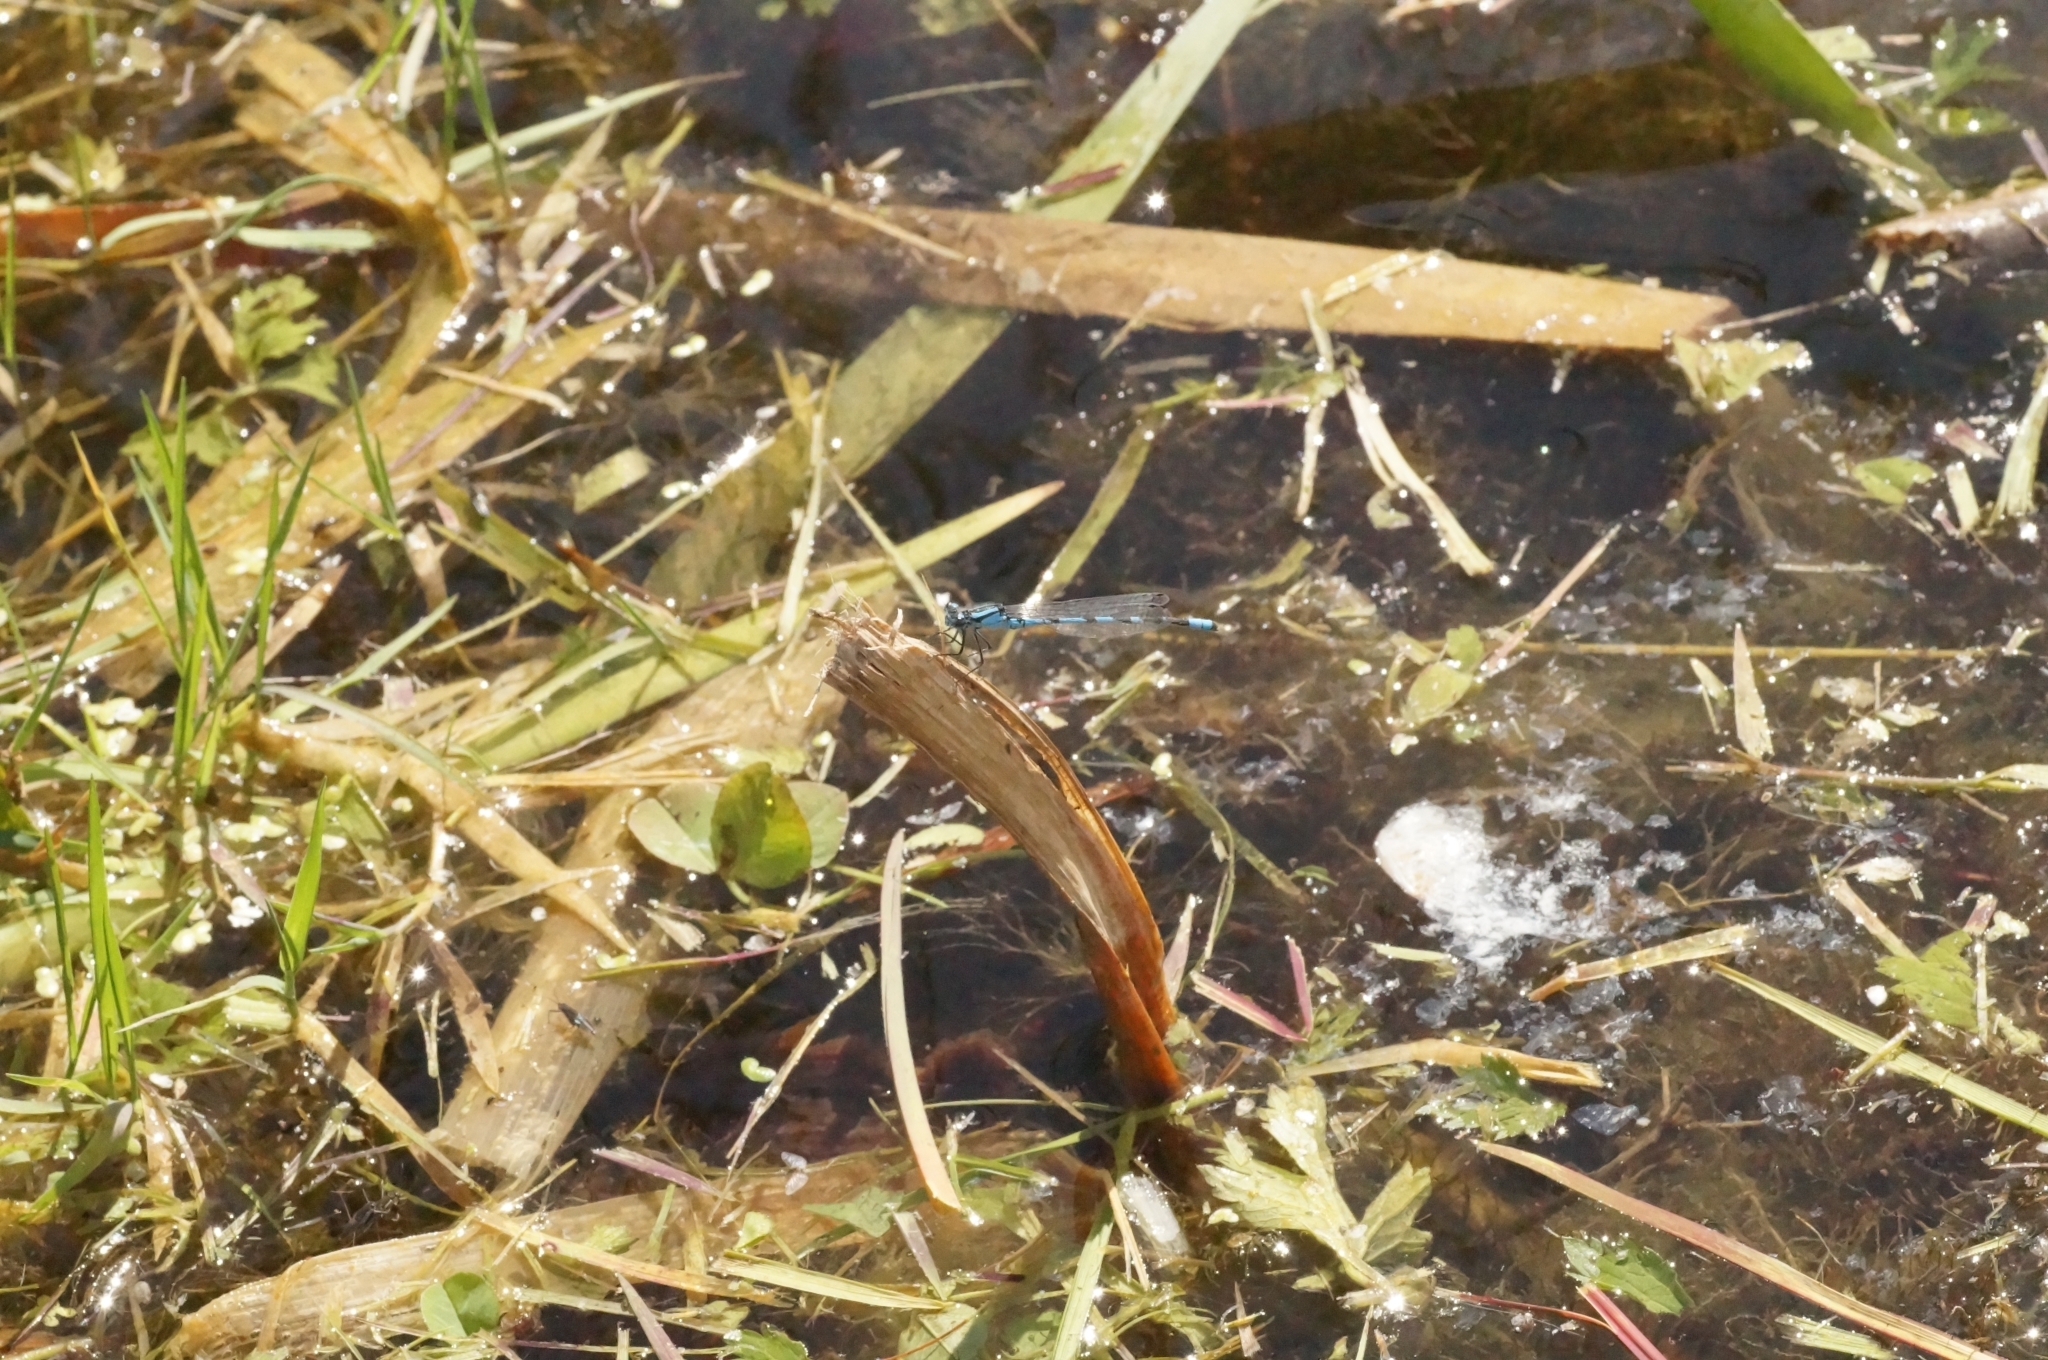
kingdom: Animalia
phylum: Arthropoda
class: Insecta
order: Odonata
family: Coenagrionidae
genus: Enallagma
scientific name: Enallagma cyathigerum
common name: Common blue damselfly
